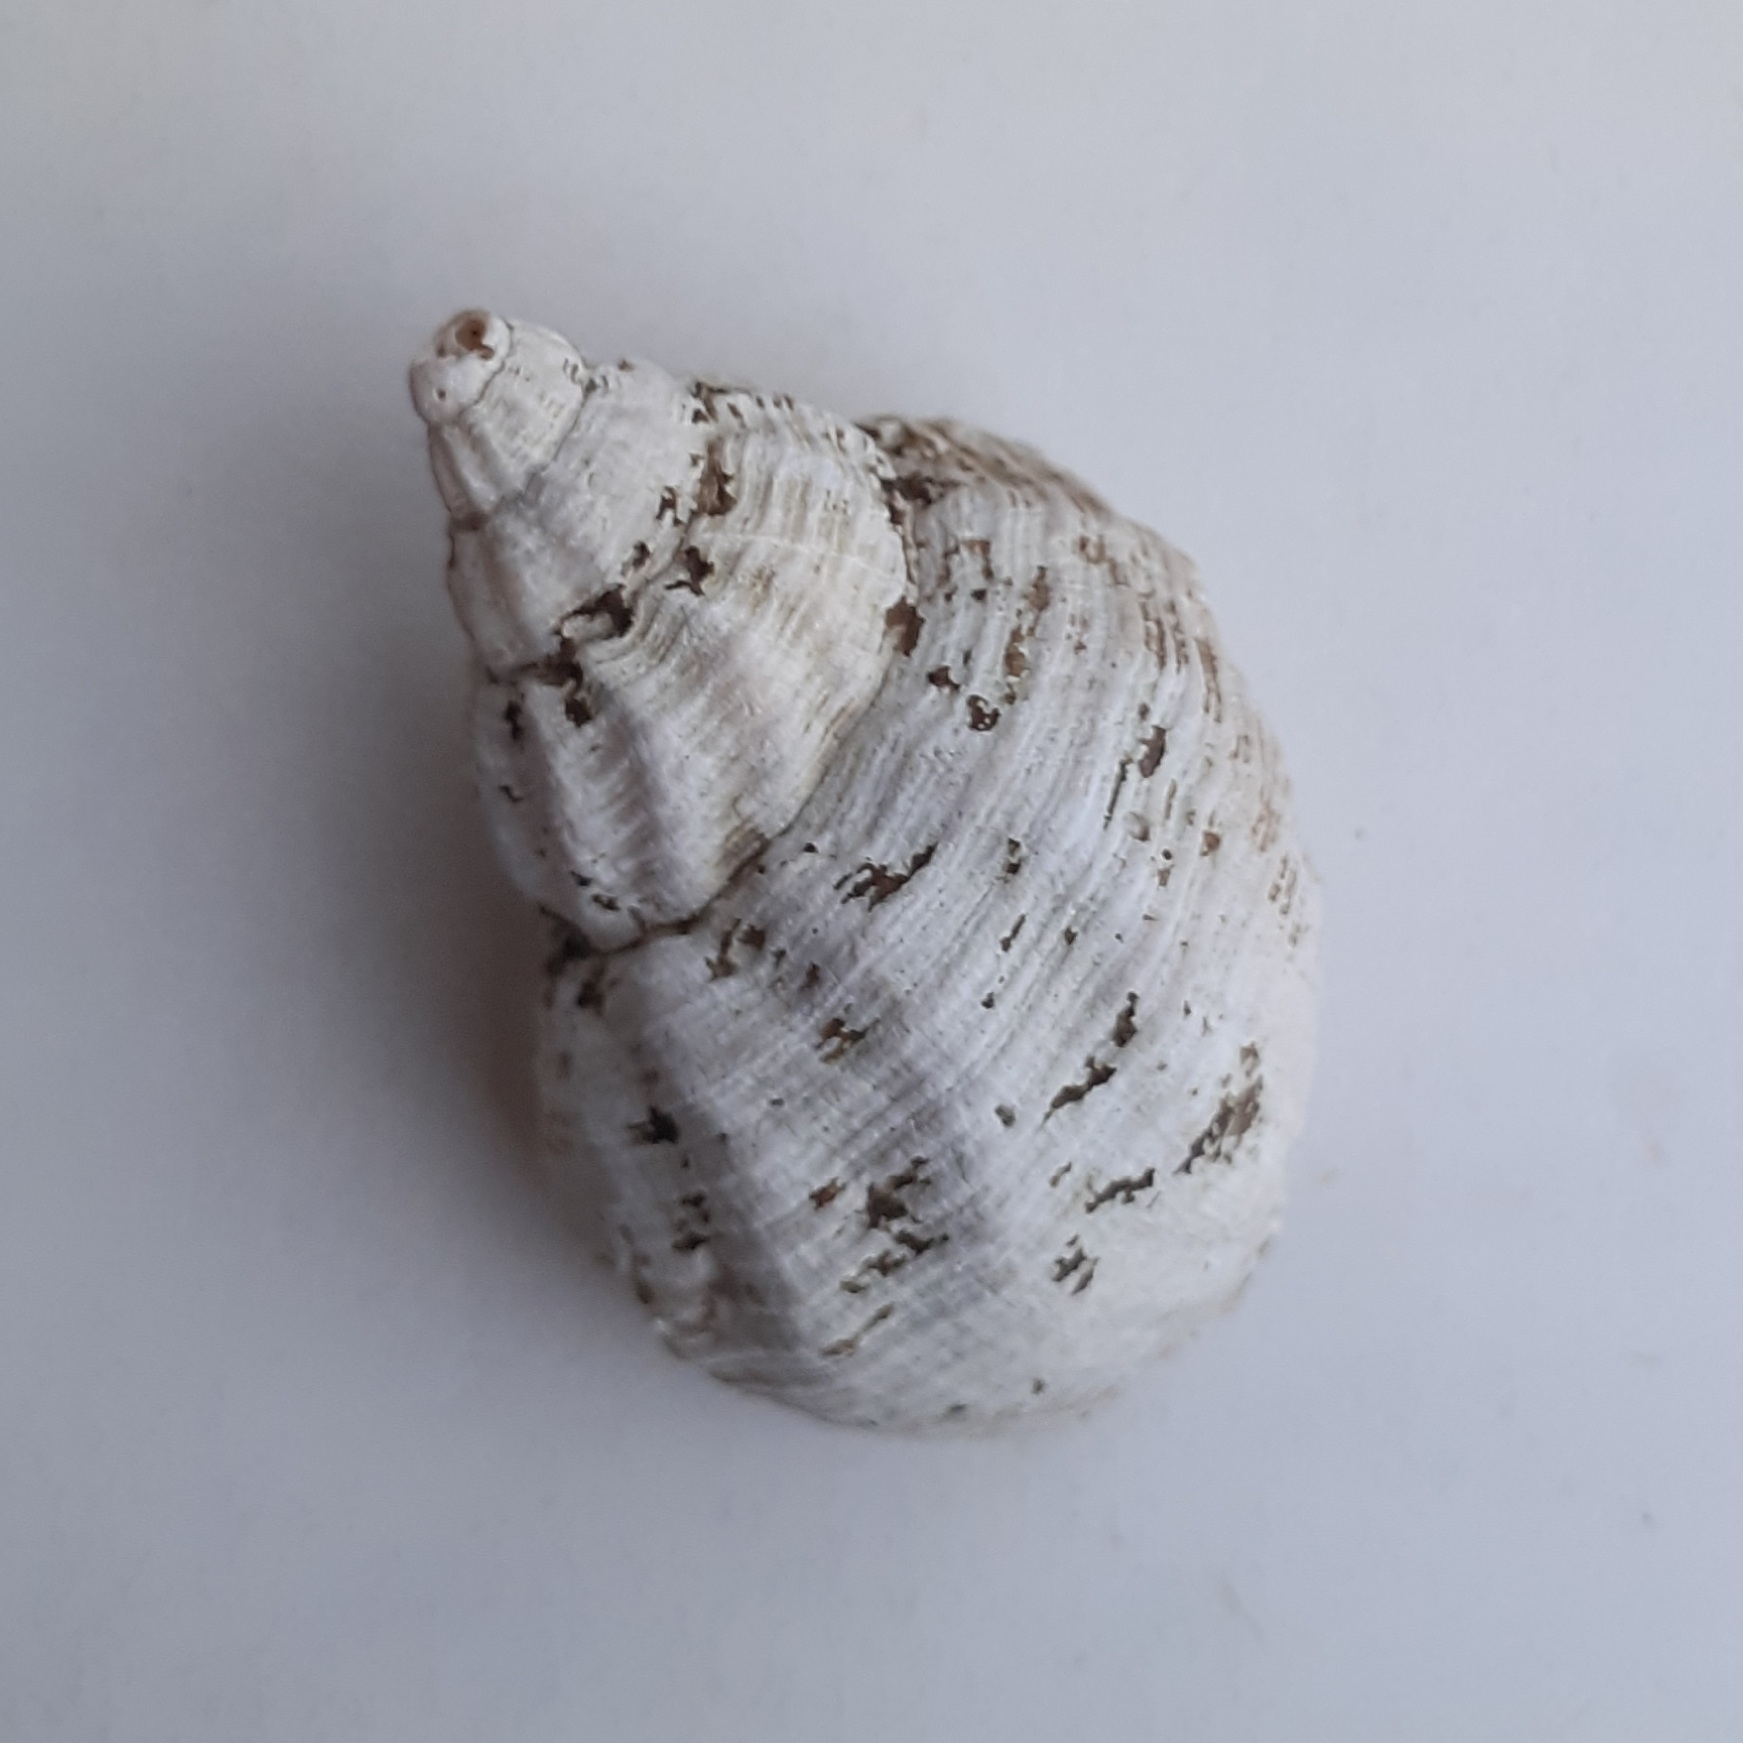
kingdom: Animalia
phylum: Mollusca
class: Gastropoda
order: Neogastropoda
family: Buccinidae
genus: Buccinum
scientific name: Buccinum undatum
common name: Common whelk
